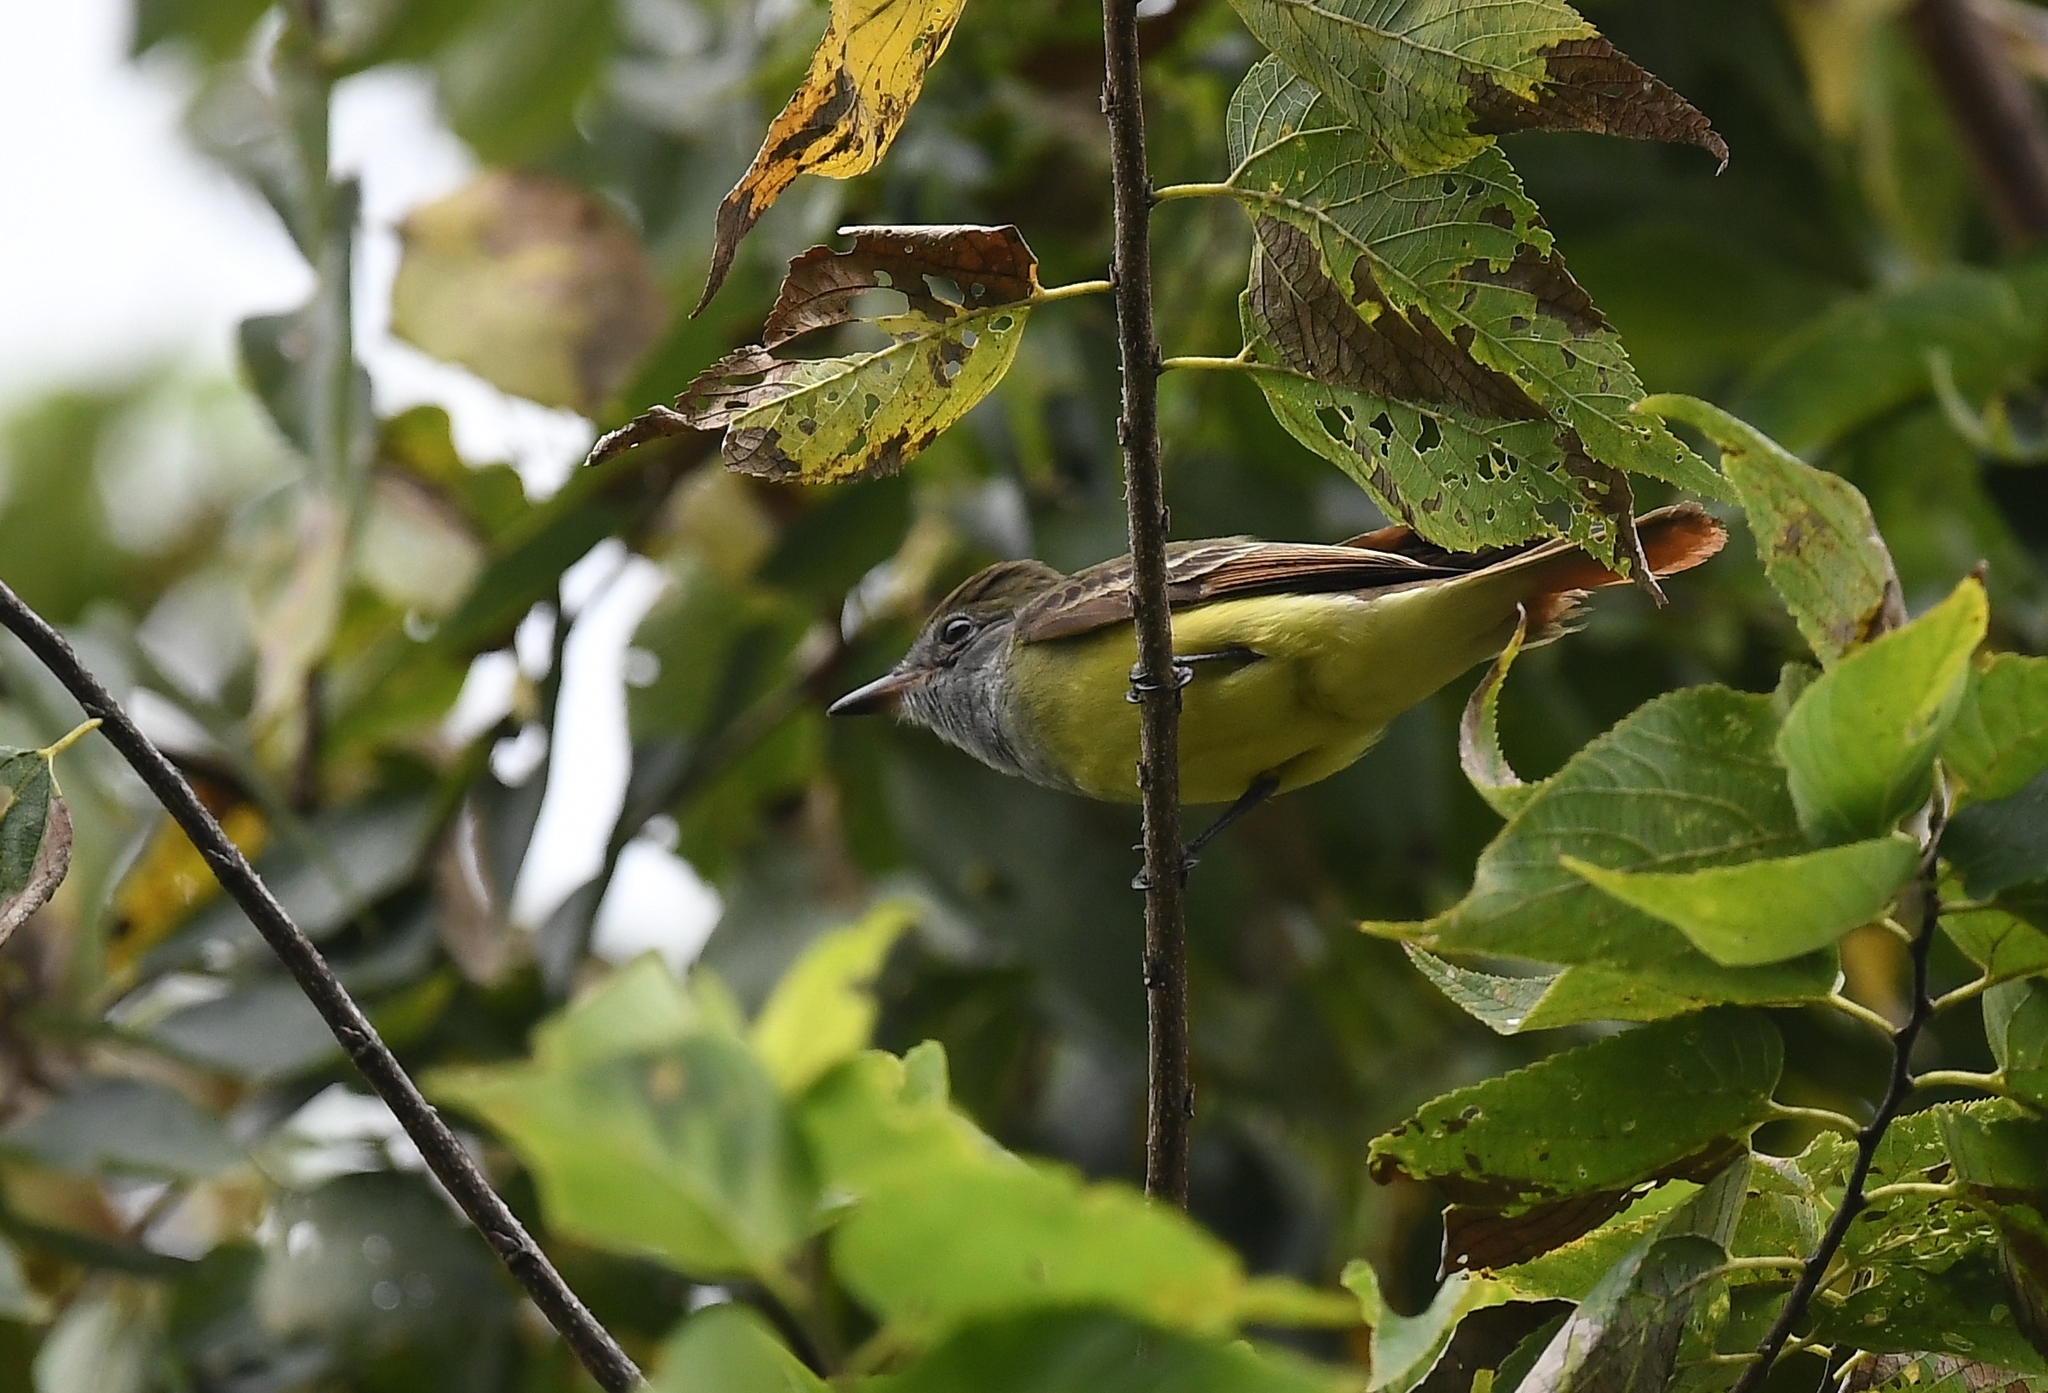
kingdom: Animalia
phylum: Chordata
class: Aves
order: Passeriformes
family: Tyrannidae
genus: Myiarchus
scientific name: Myiarchus crinitus
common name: Great crested flycatcher
